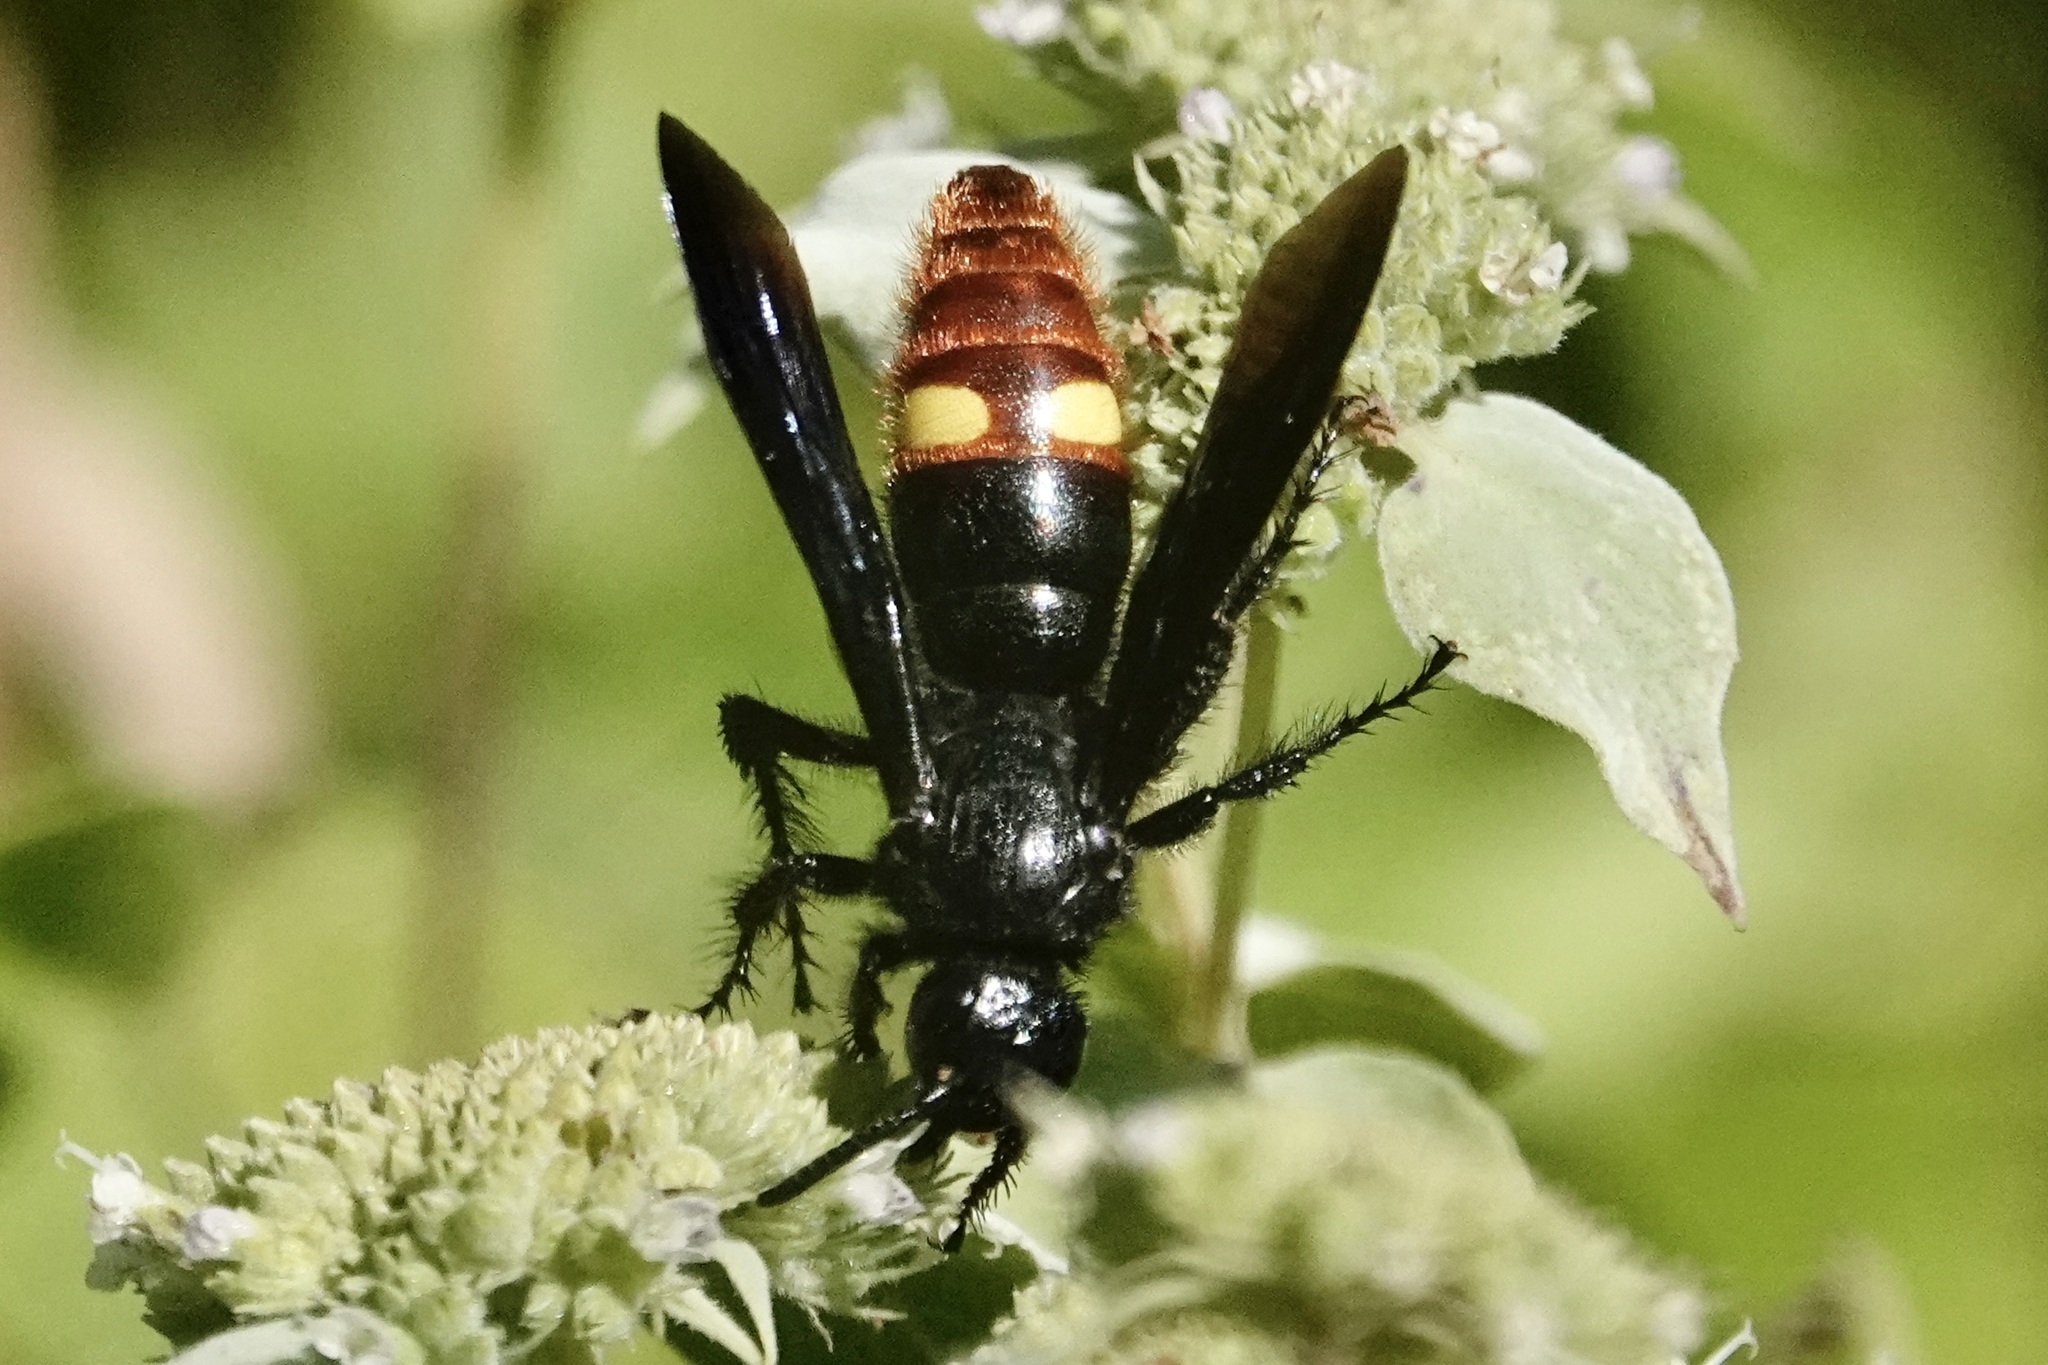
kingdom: Animalia
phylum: Arthropoda
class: Insecta
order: Hymenoptera
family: Scoliidae
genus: Scolia
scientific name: Scolia dubia
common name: Blue-winged scoliid wasp
